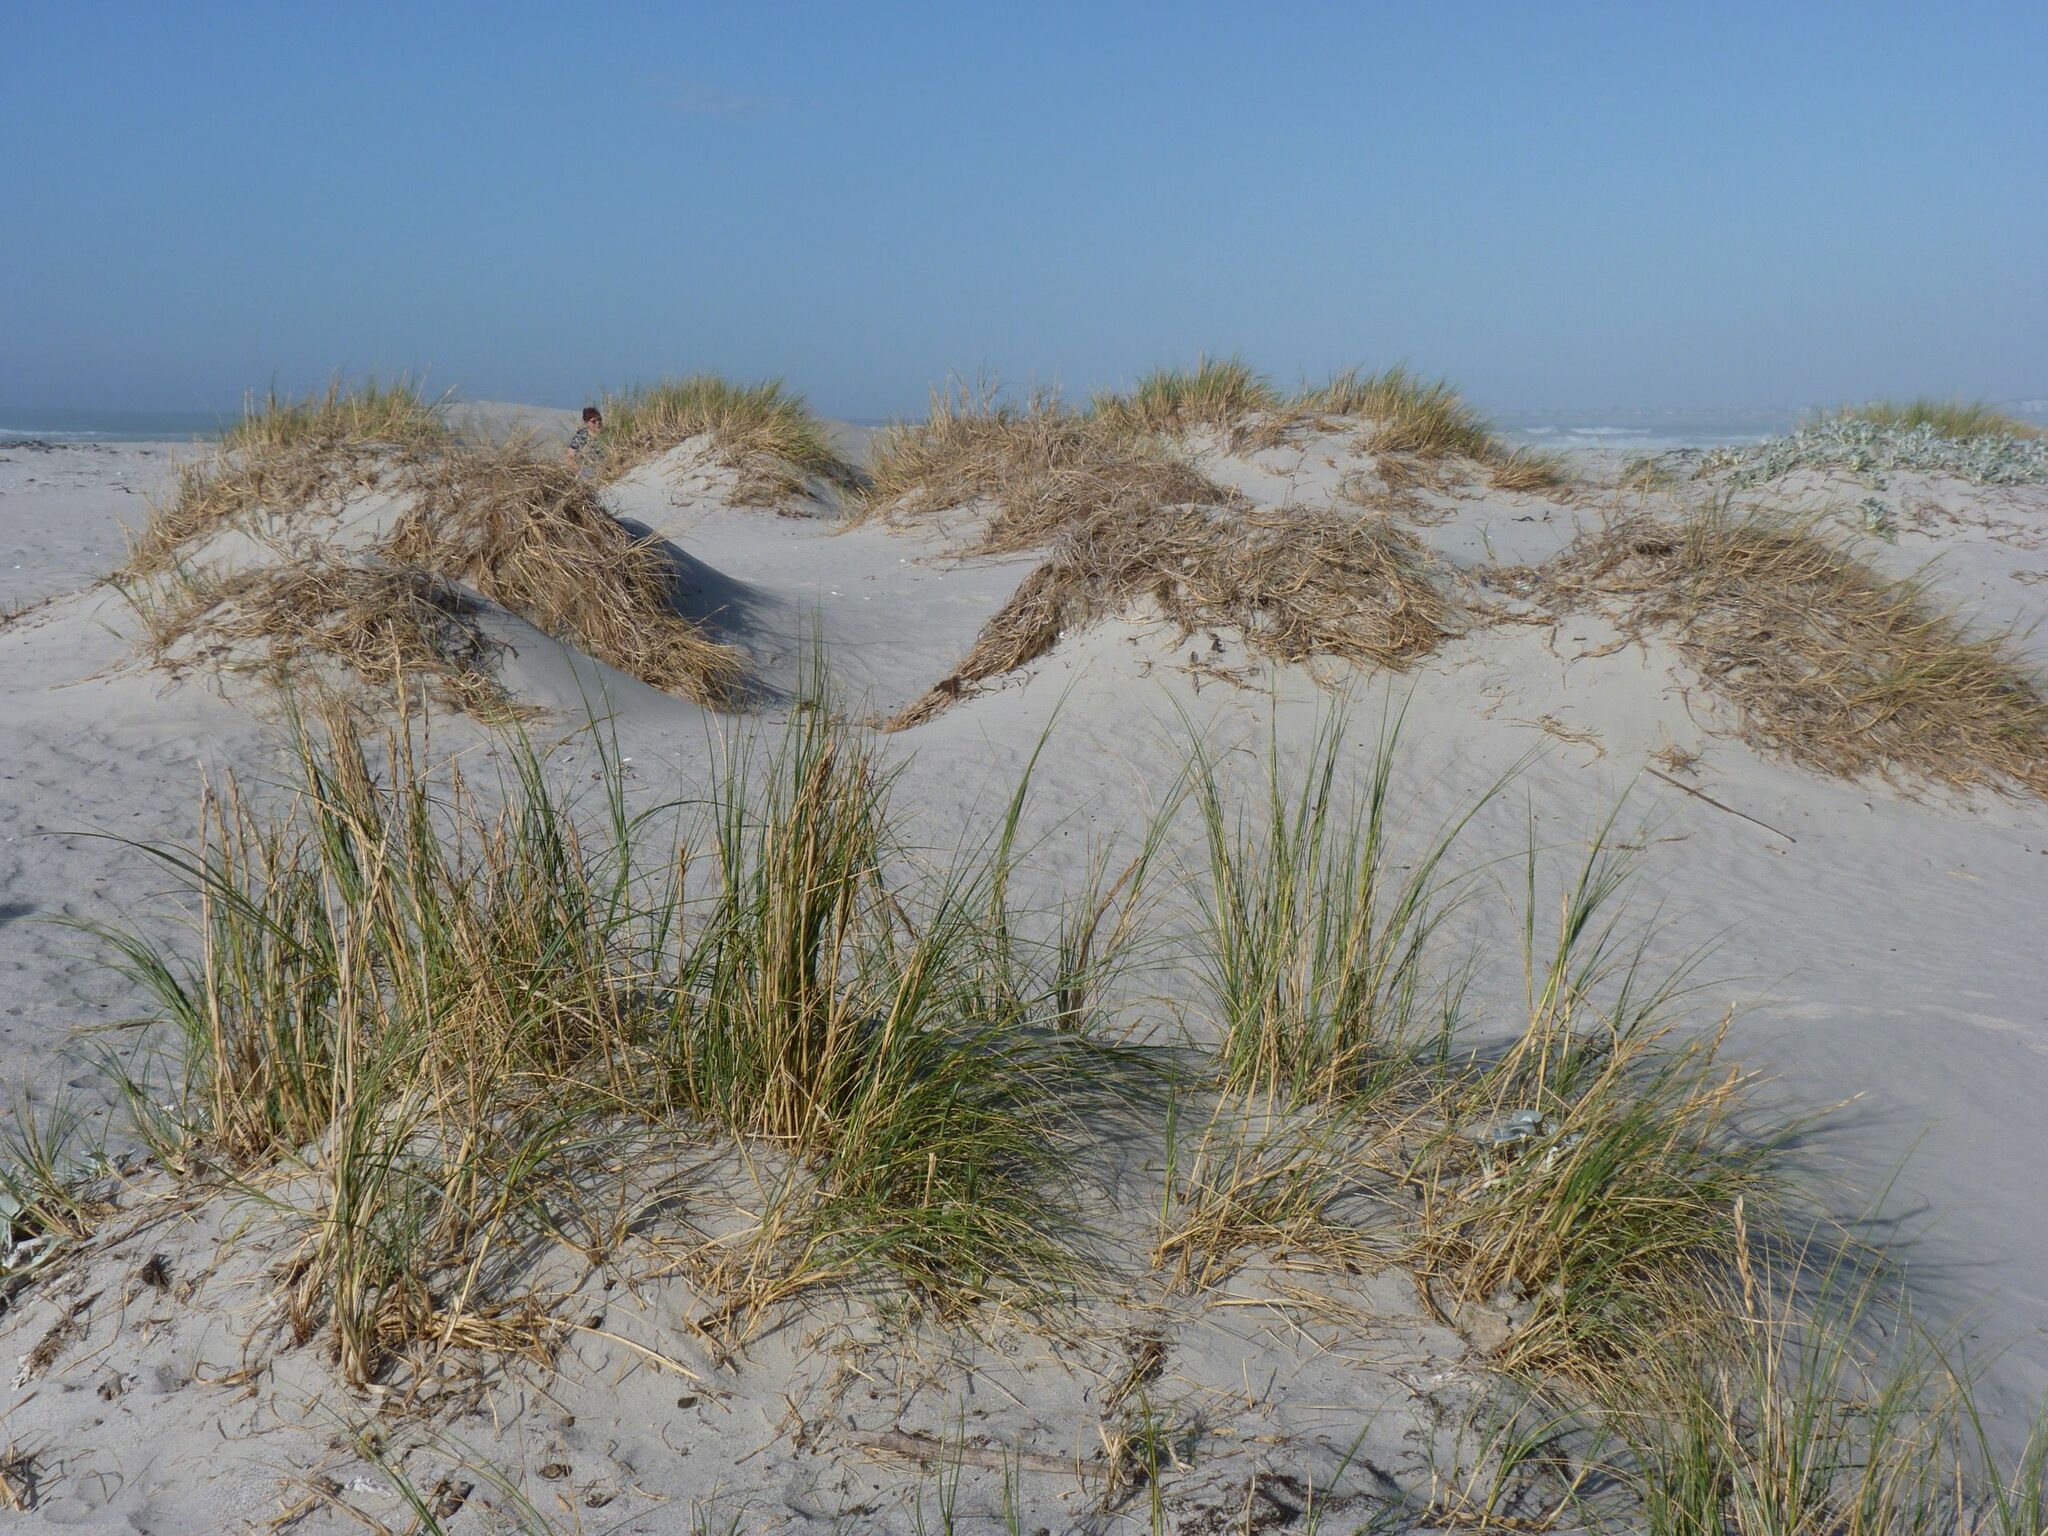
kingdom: Plantae
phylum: Tracheophyta
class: Liliopsida
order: Poales
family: Poaceae
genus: Thinopyrum
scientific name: Thinopyrum distichum
